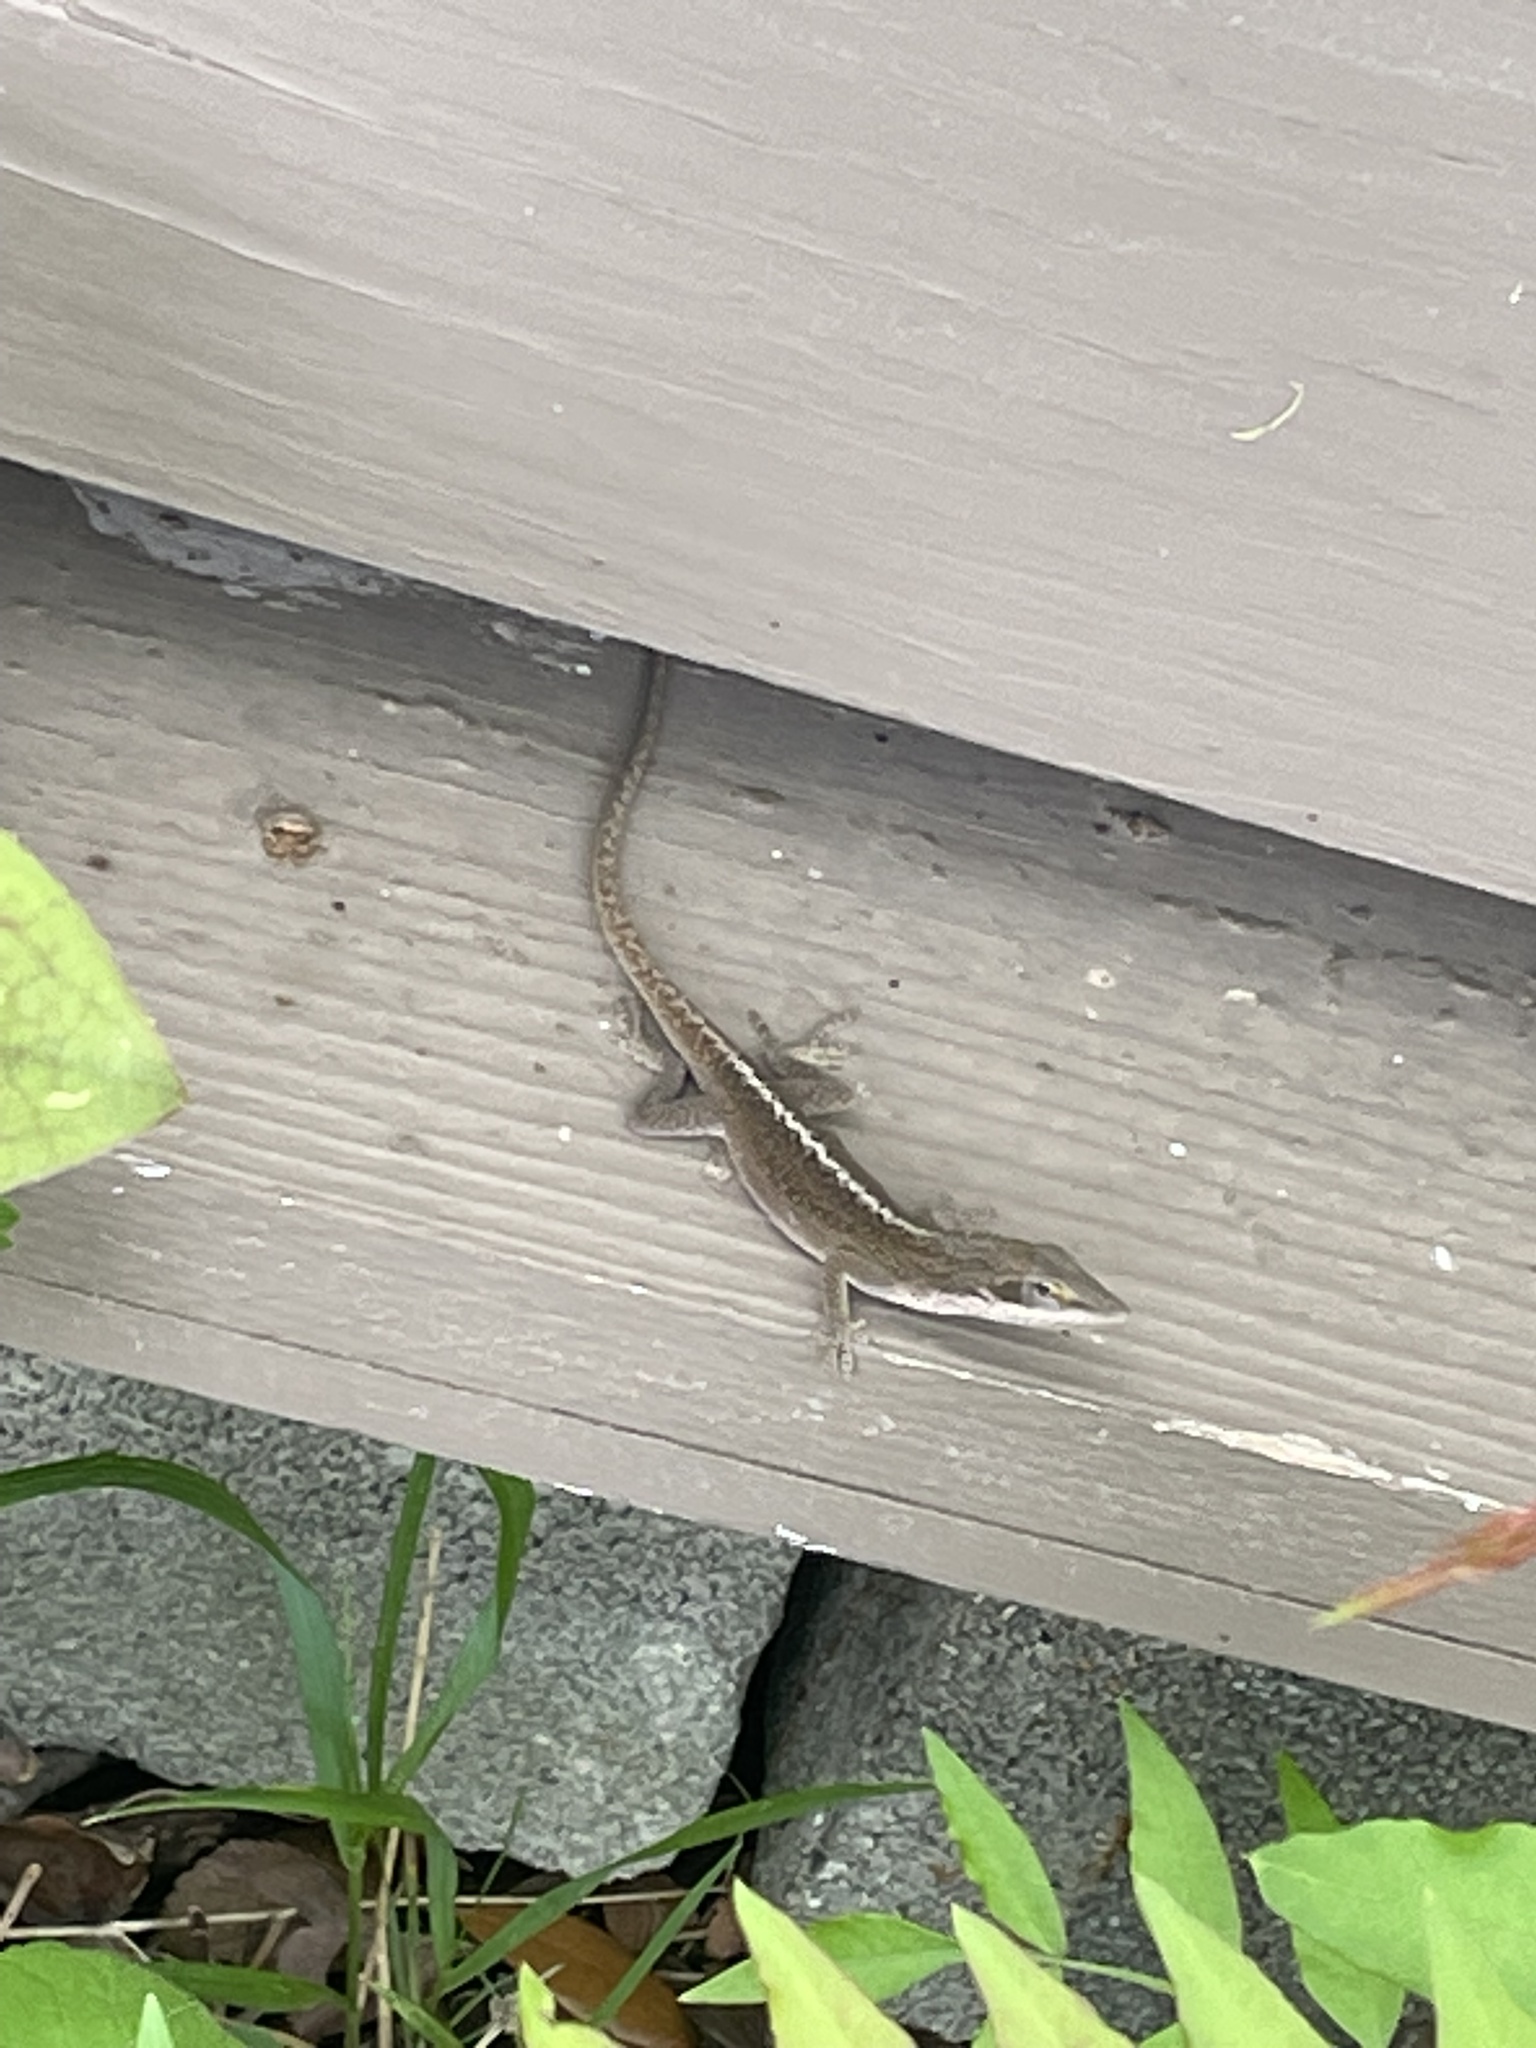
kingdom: Animalia
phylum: Chordata
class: Squamata
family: Dactyloidae
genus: Anolis
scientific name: Anolis carolinensis
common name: Green anole
